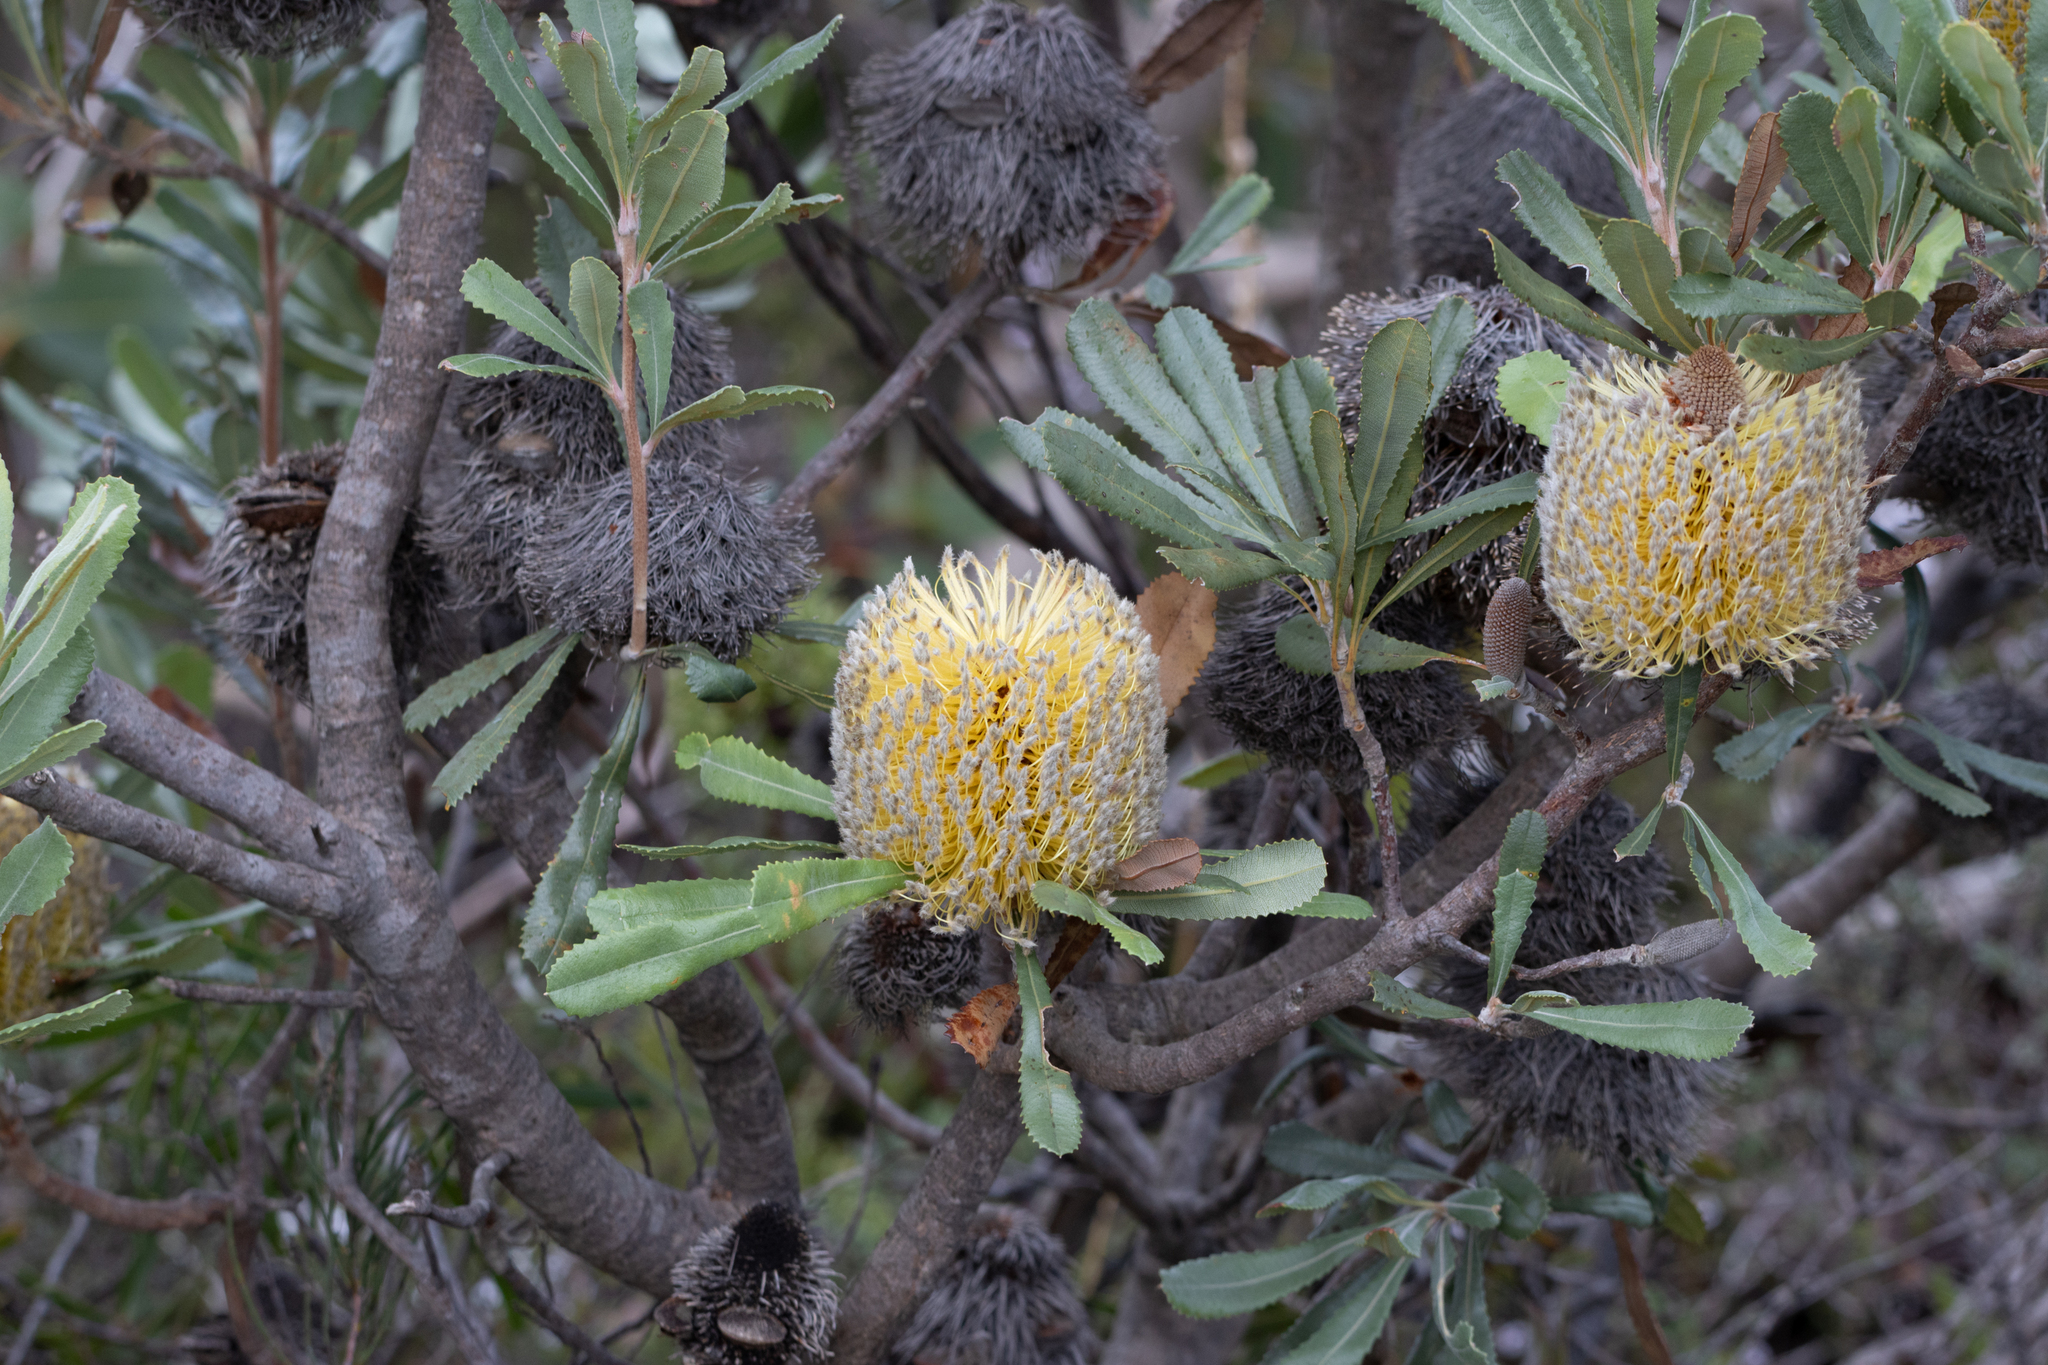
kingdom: Plantae
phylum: Tracheophyta
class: Magnoliopsida
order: Proteales
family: Proteaceae
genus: Banksia
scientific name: Banksia ornata
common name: Desert banksia
